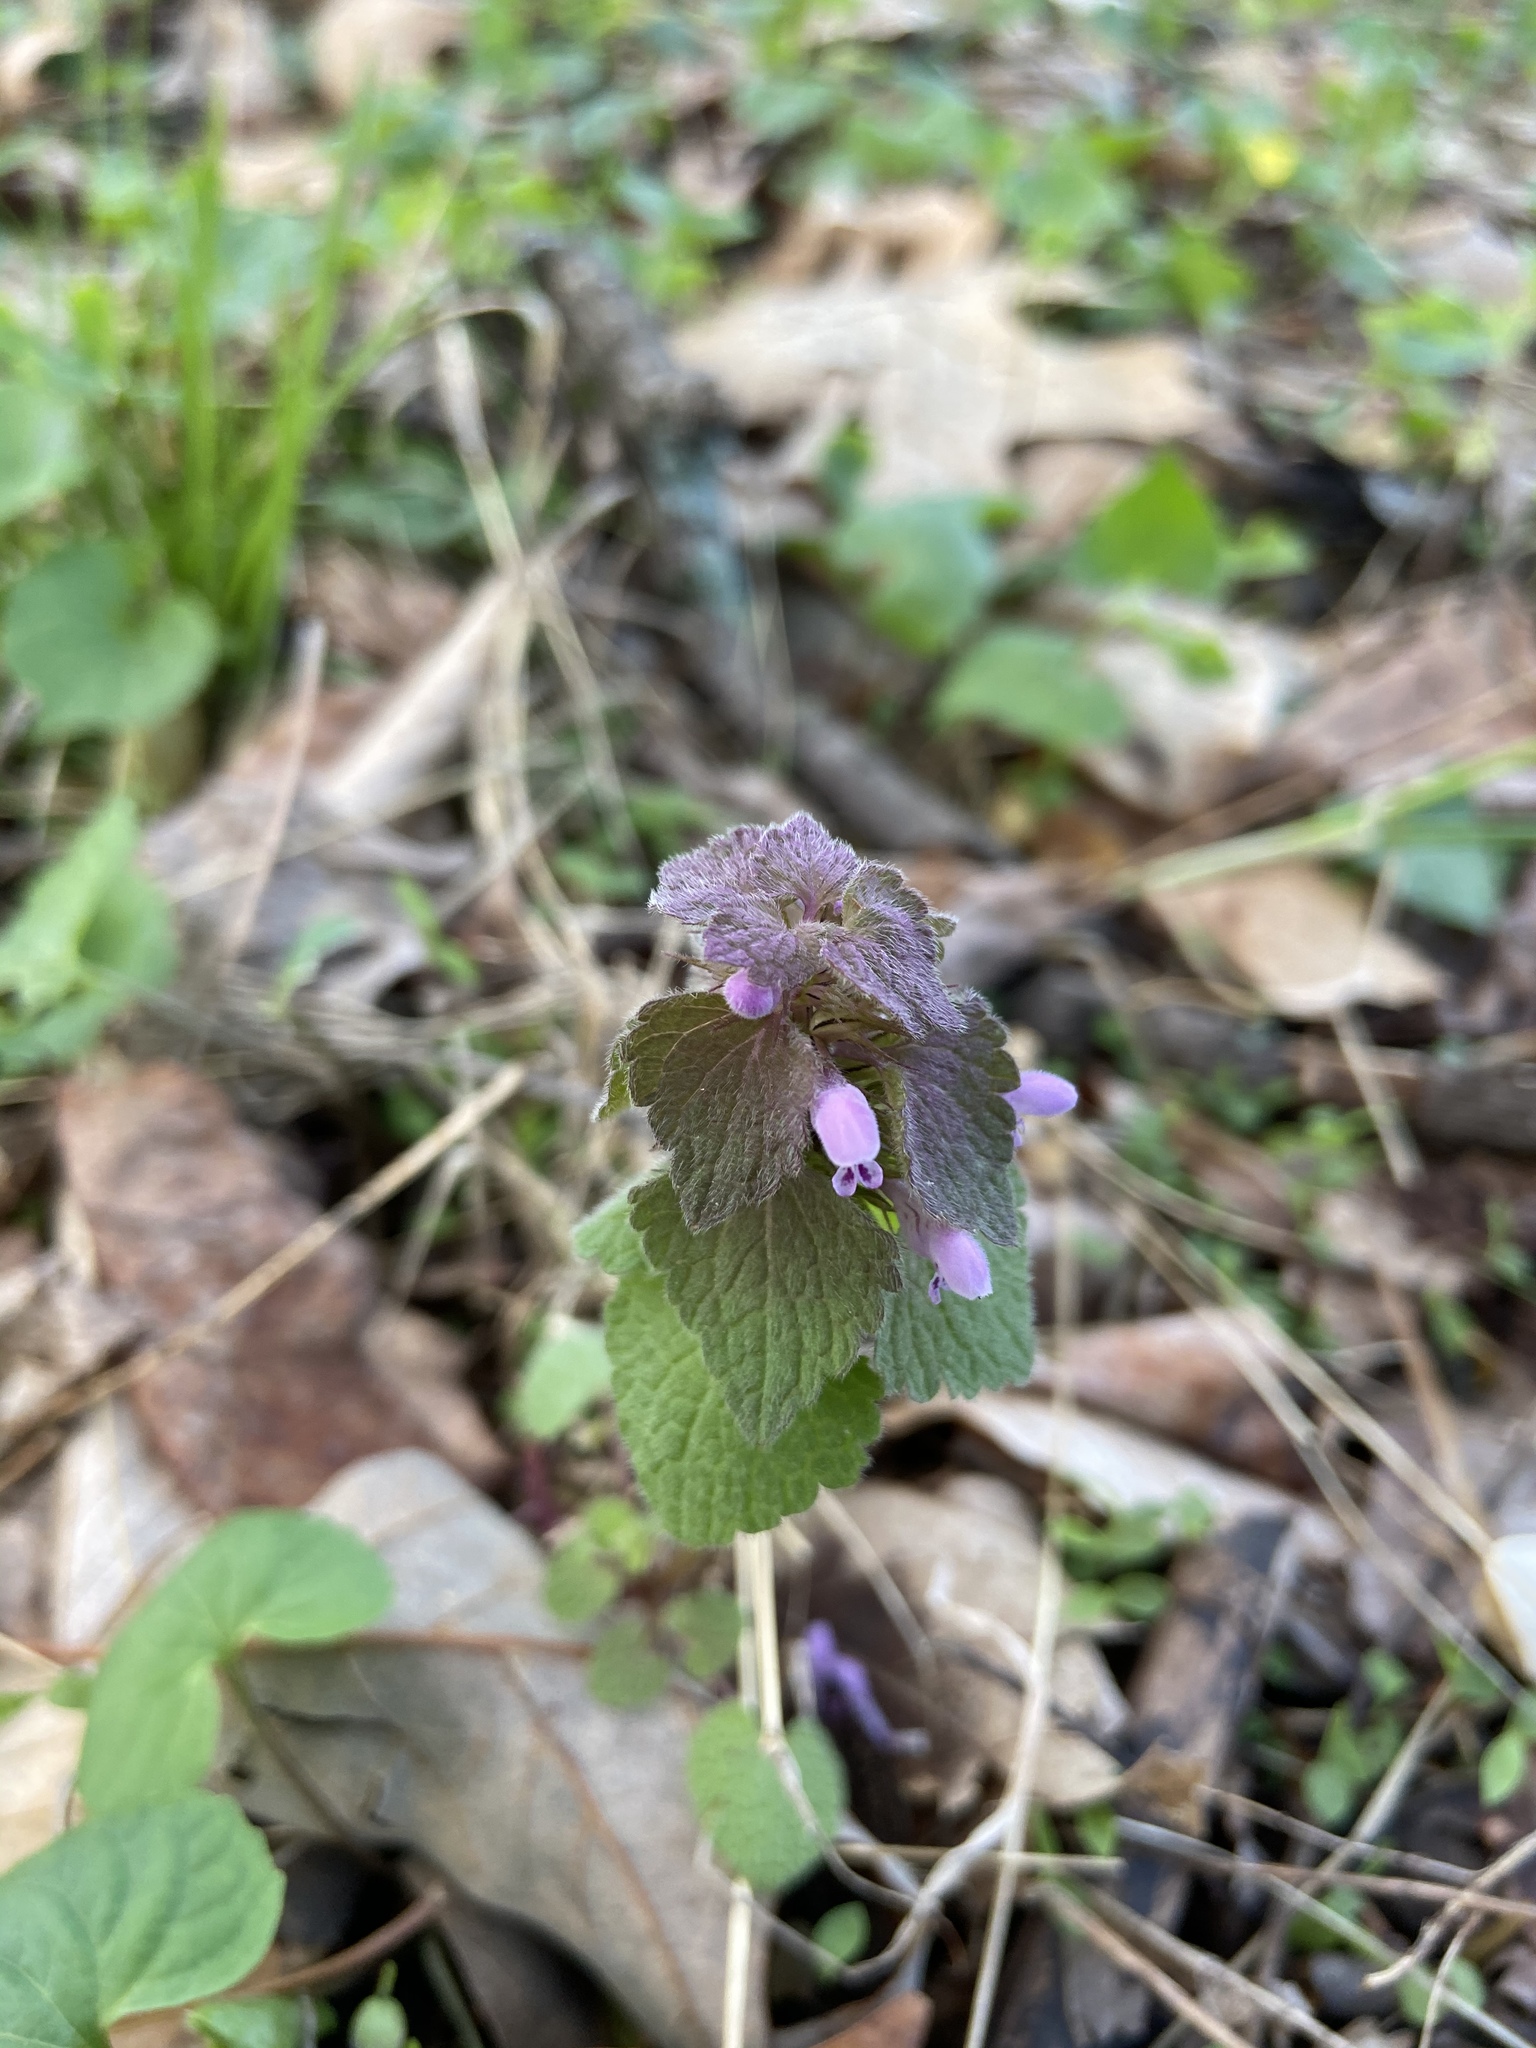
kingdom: Plantae
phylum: Tracheophyta
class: Magnoliopsida
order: Lamiales
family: Lamiaceae
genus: Lamium
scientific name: Lamium purpureum
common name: Red dead-nettle
